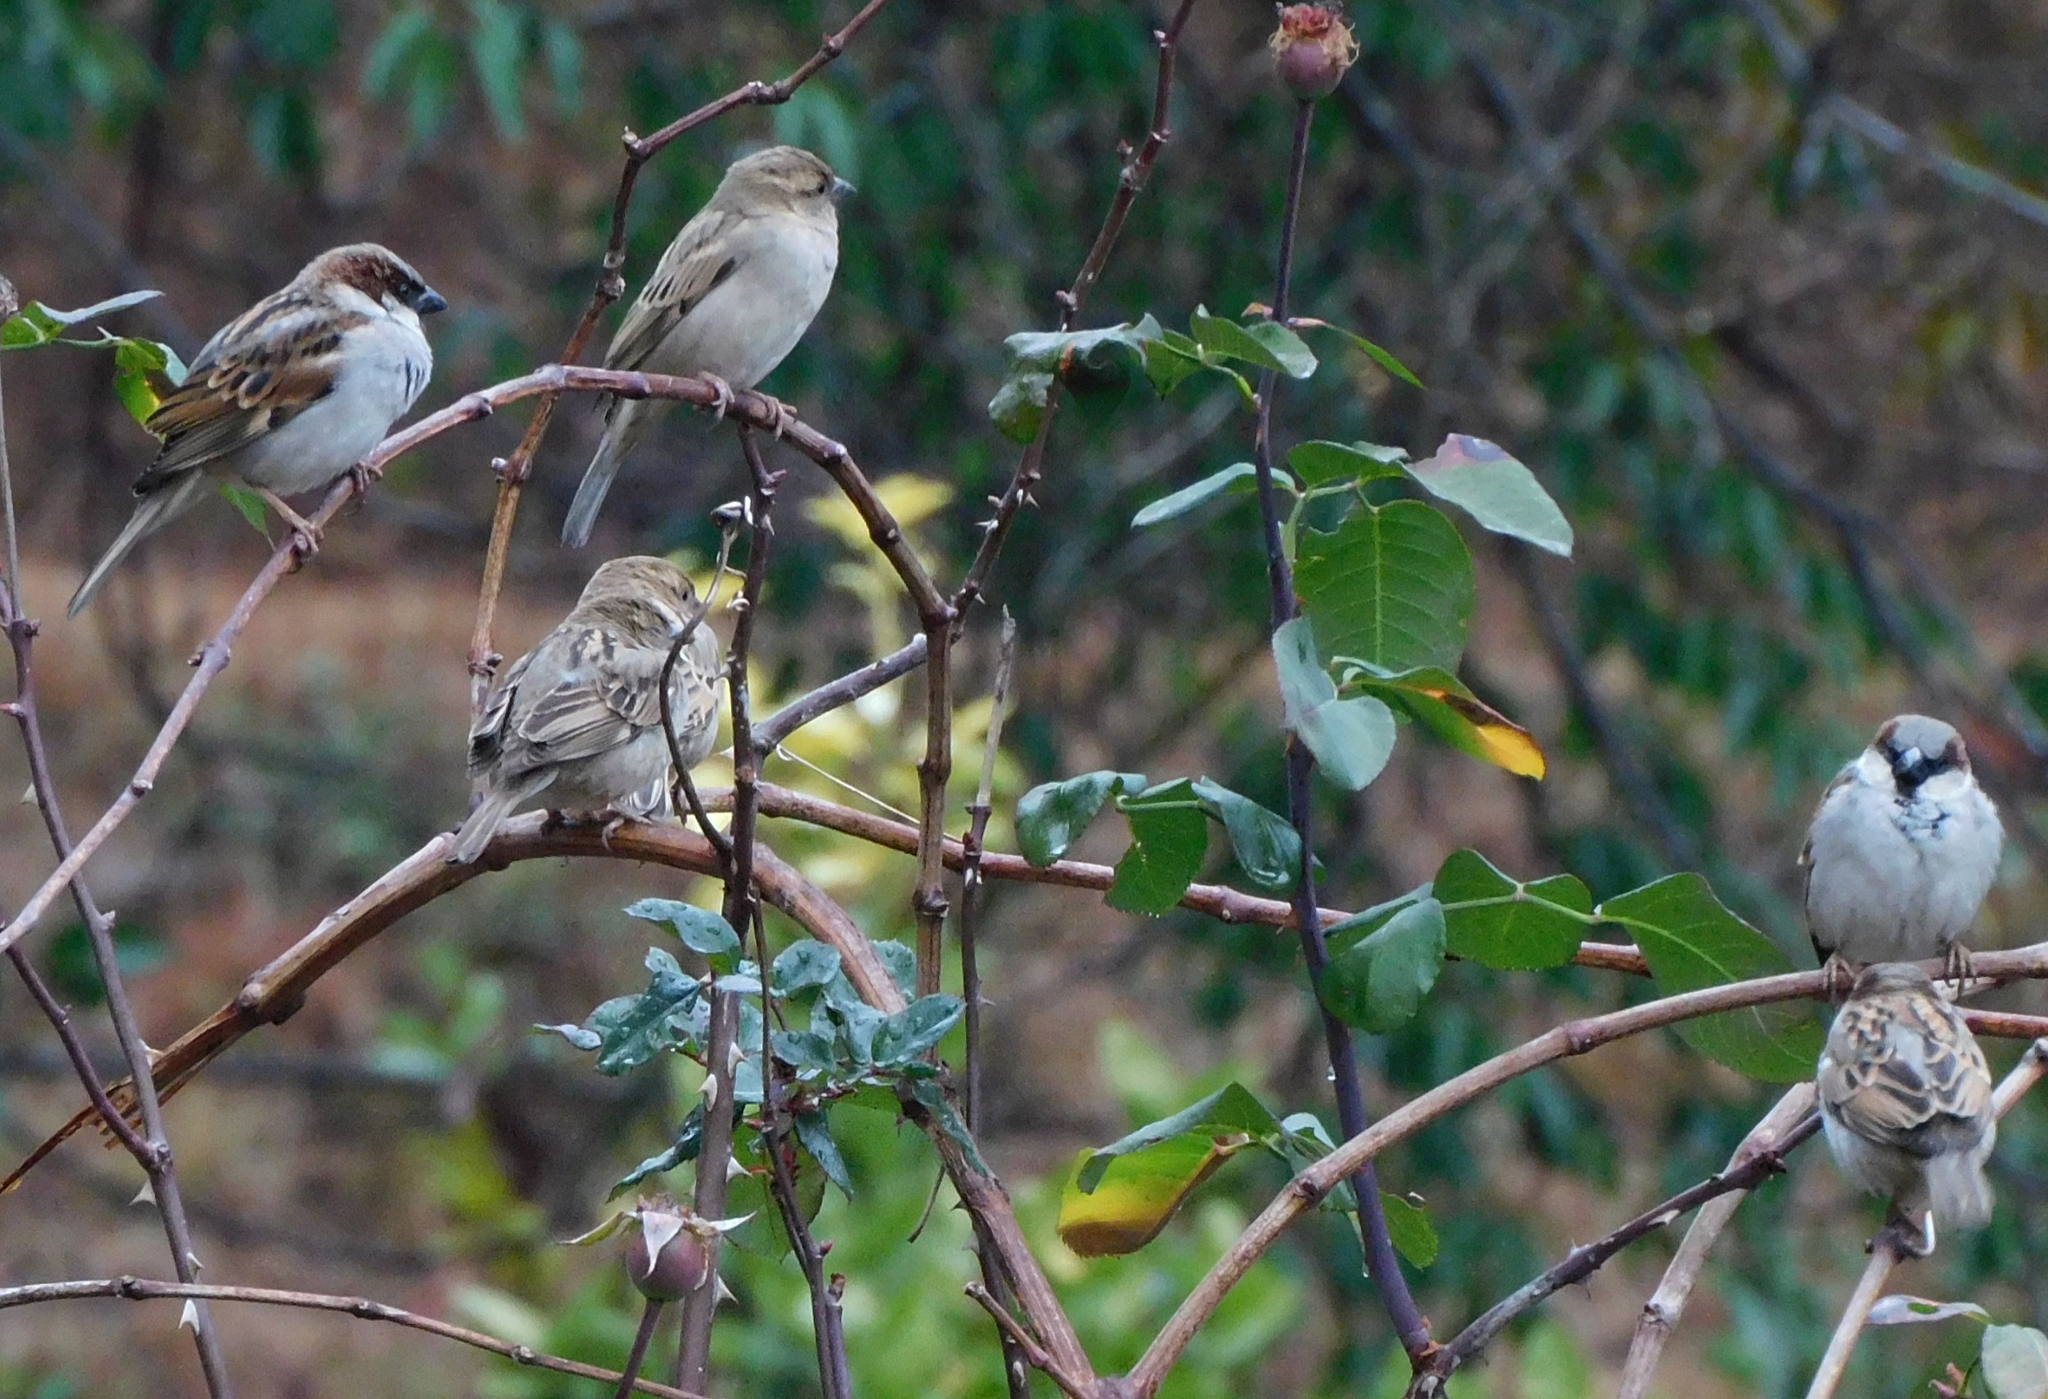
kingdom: Animalia
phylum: Chordata
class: Aves
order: Passeriformes
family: Passeridae
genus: Passer
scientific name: Passer domesticus
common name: House sparrow
